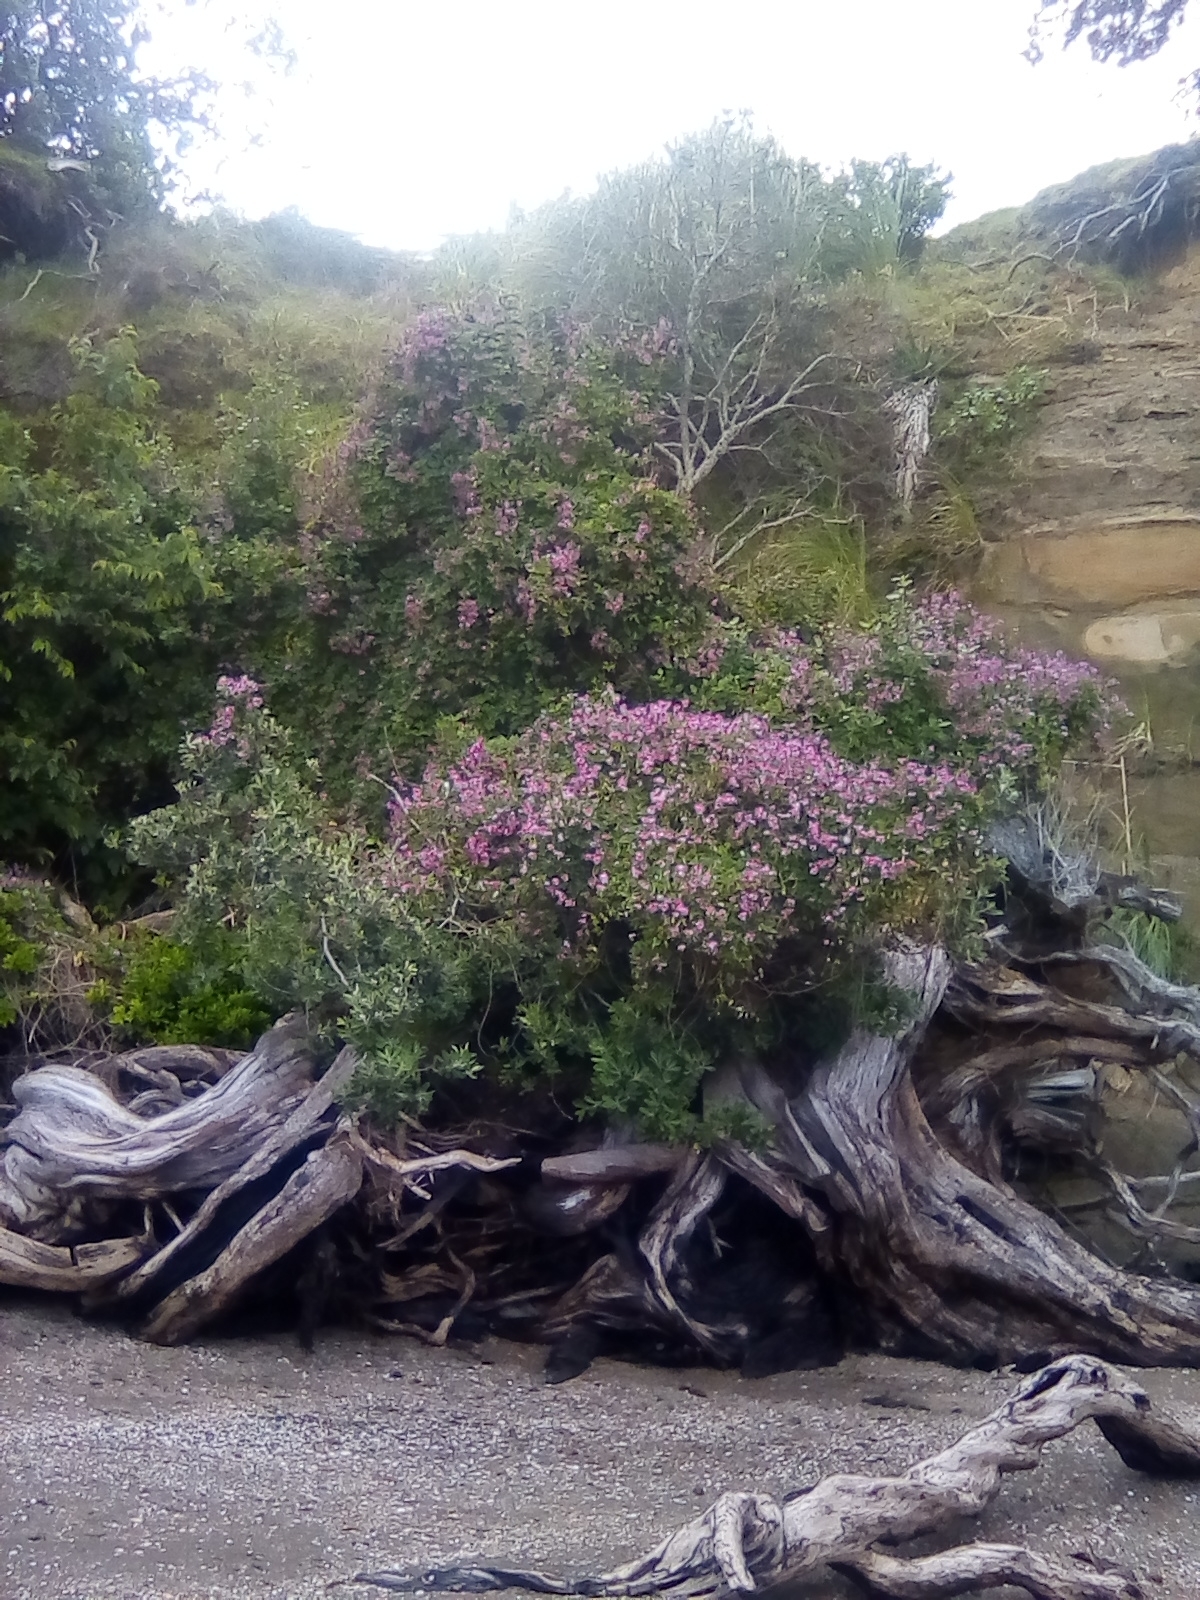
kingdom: Plantae
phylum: Tracheophyta
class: Magnoliopsida
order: Fabales
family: Fabaceae
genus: Dipogon
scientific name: Dipogon lignosus
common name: Okie bean
